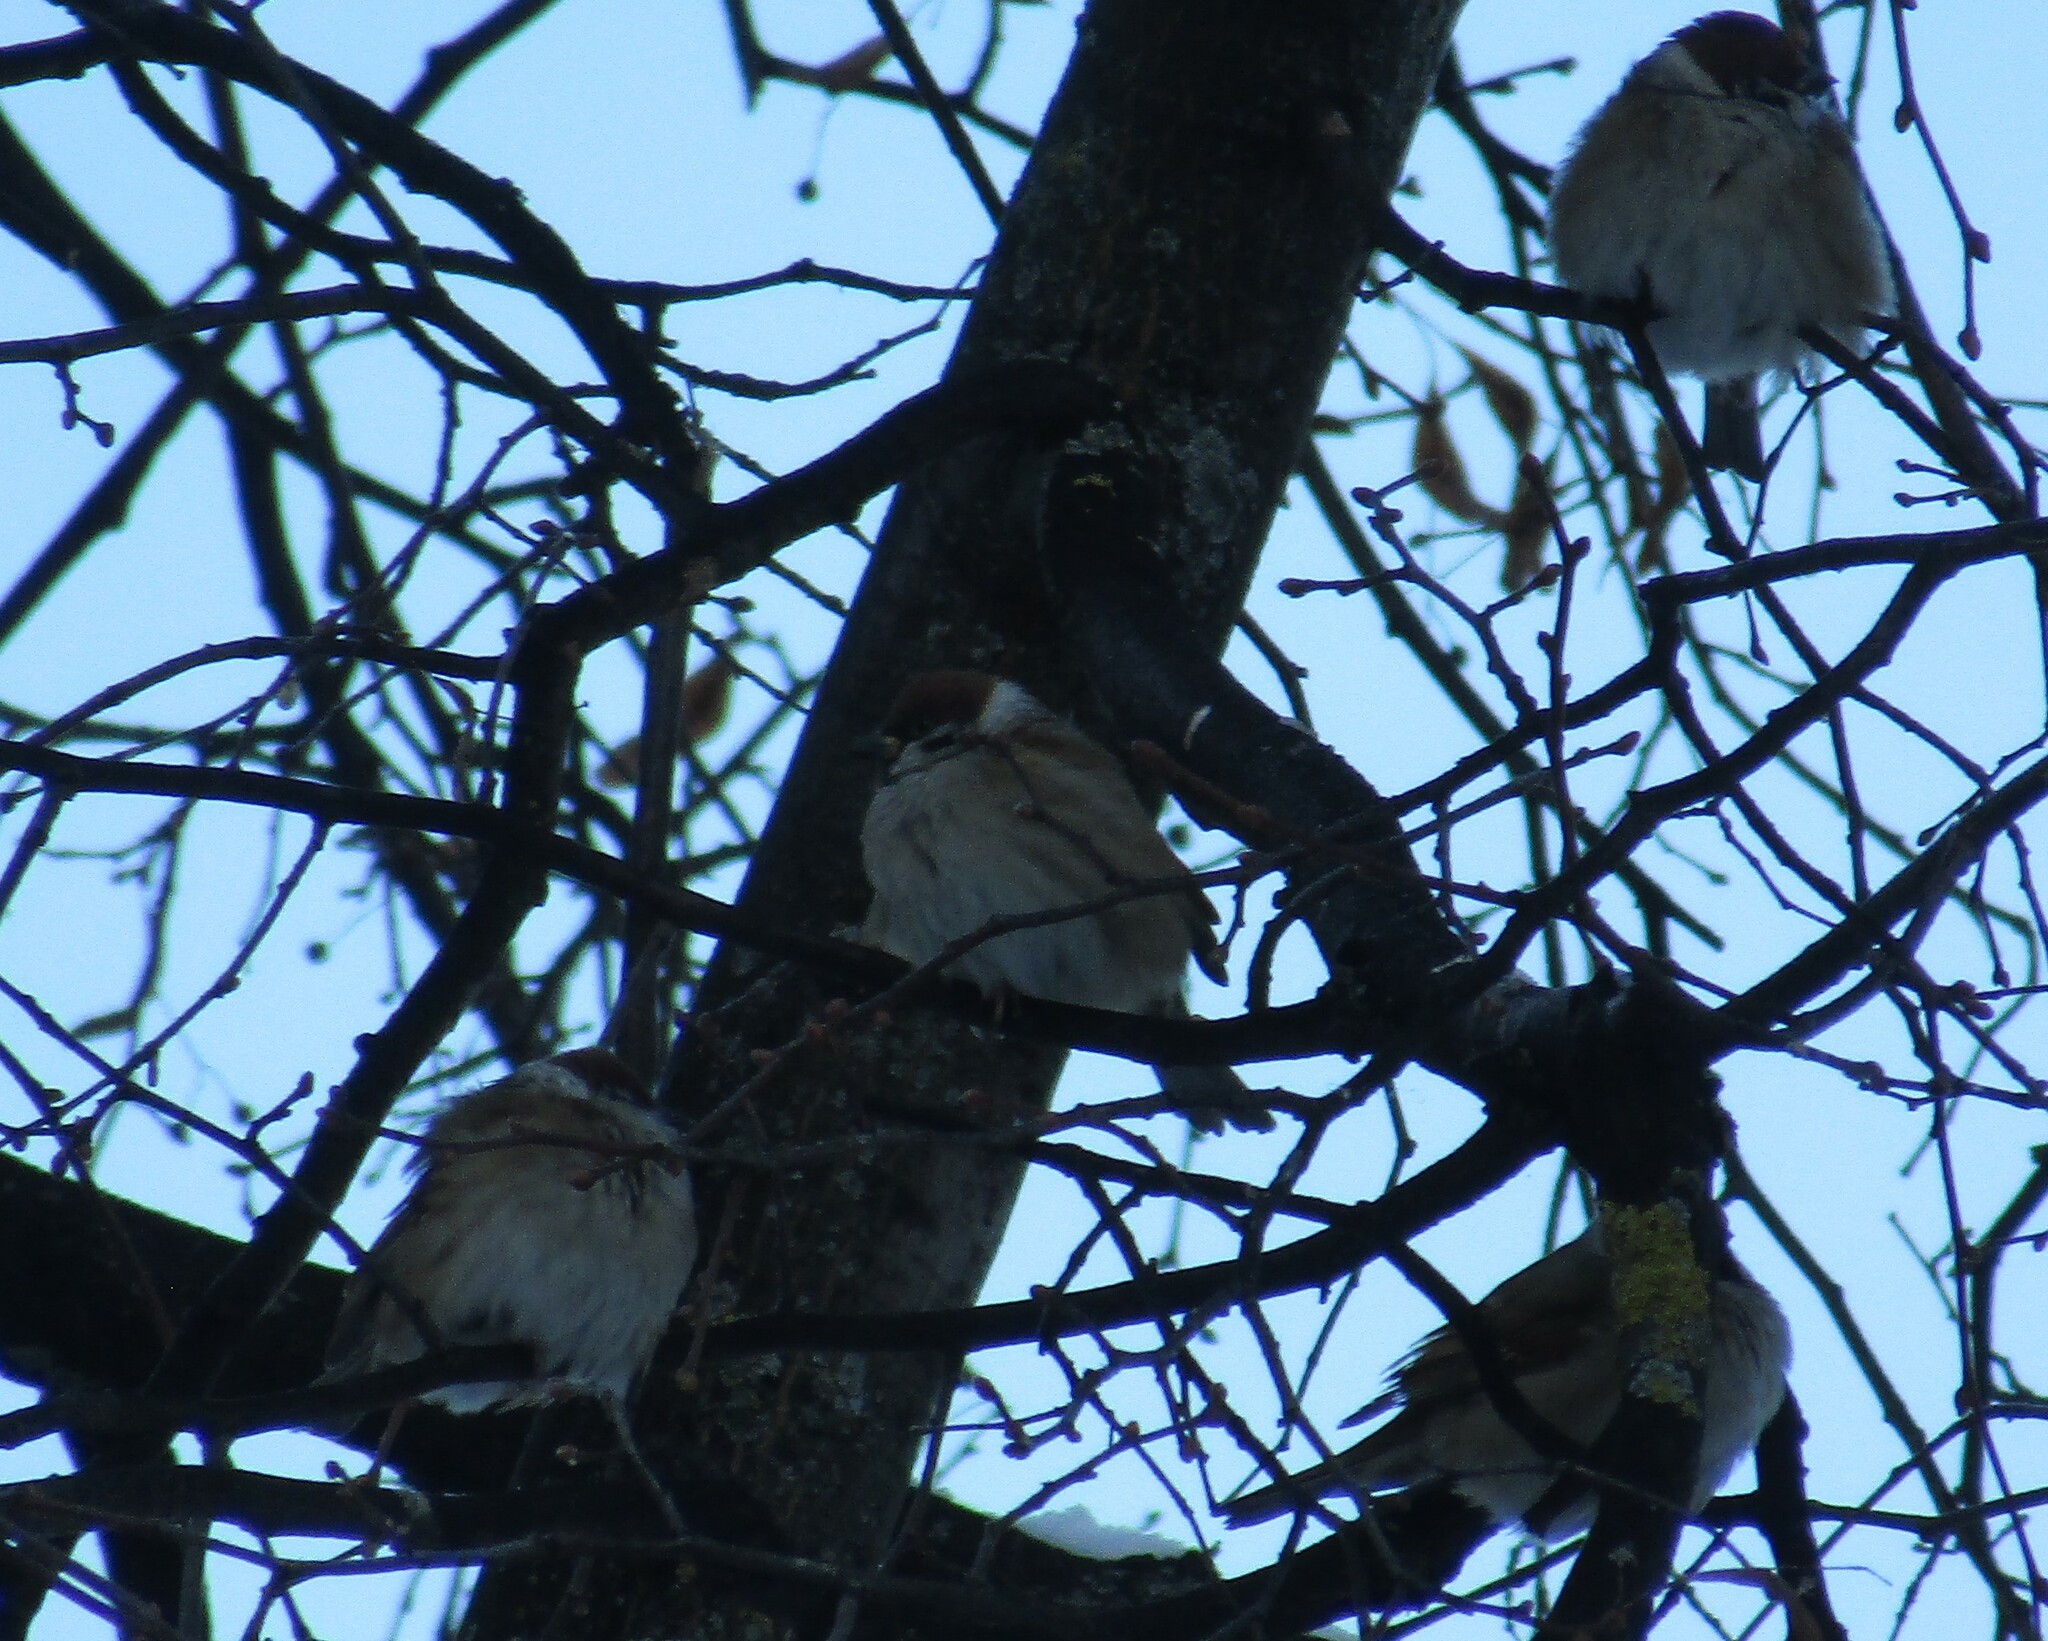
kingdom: Animalia
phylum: Chordata
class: Aves
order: Passeriformes
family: Passeridae
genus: Passer
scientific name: Passer montanus
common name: Eurasian tree sparrow
